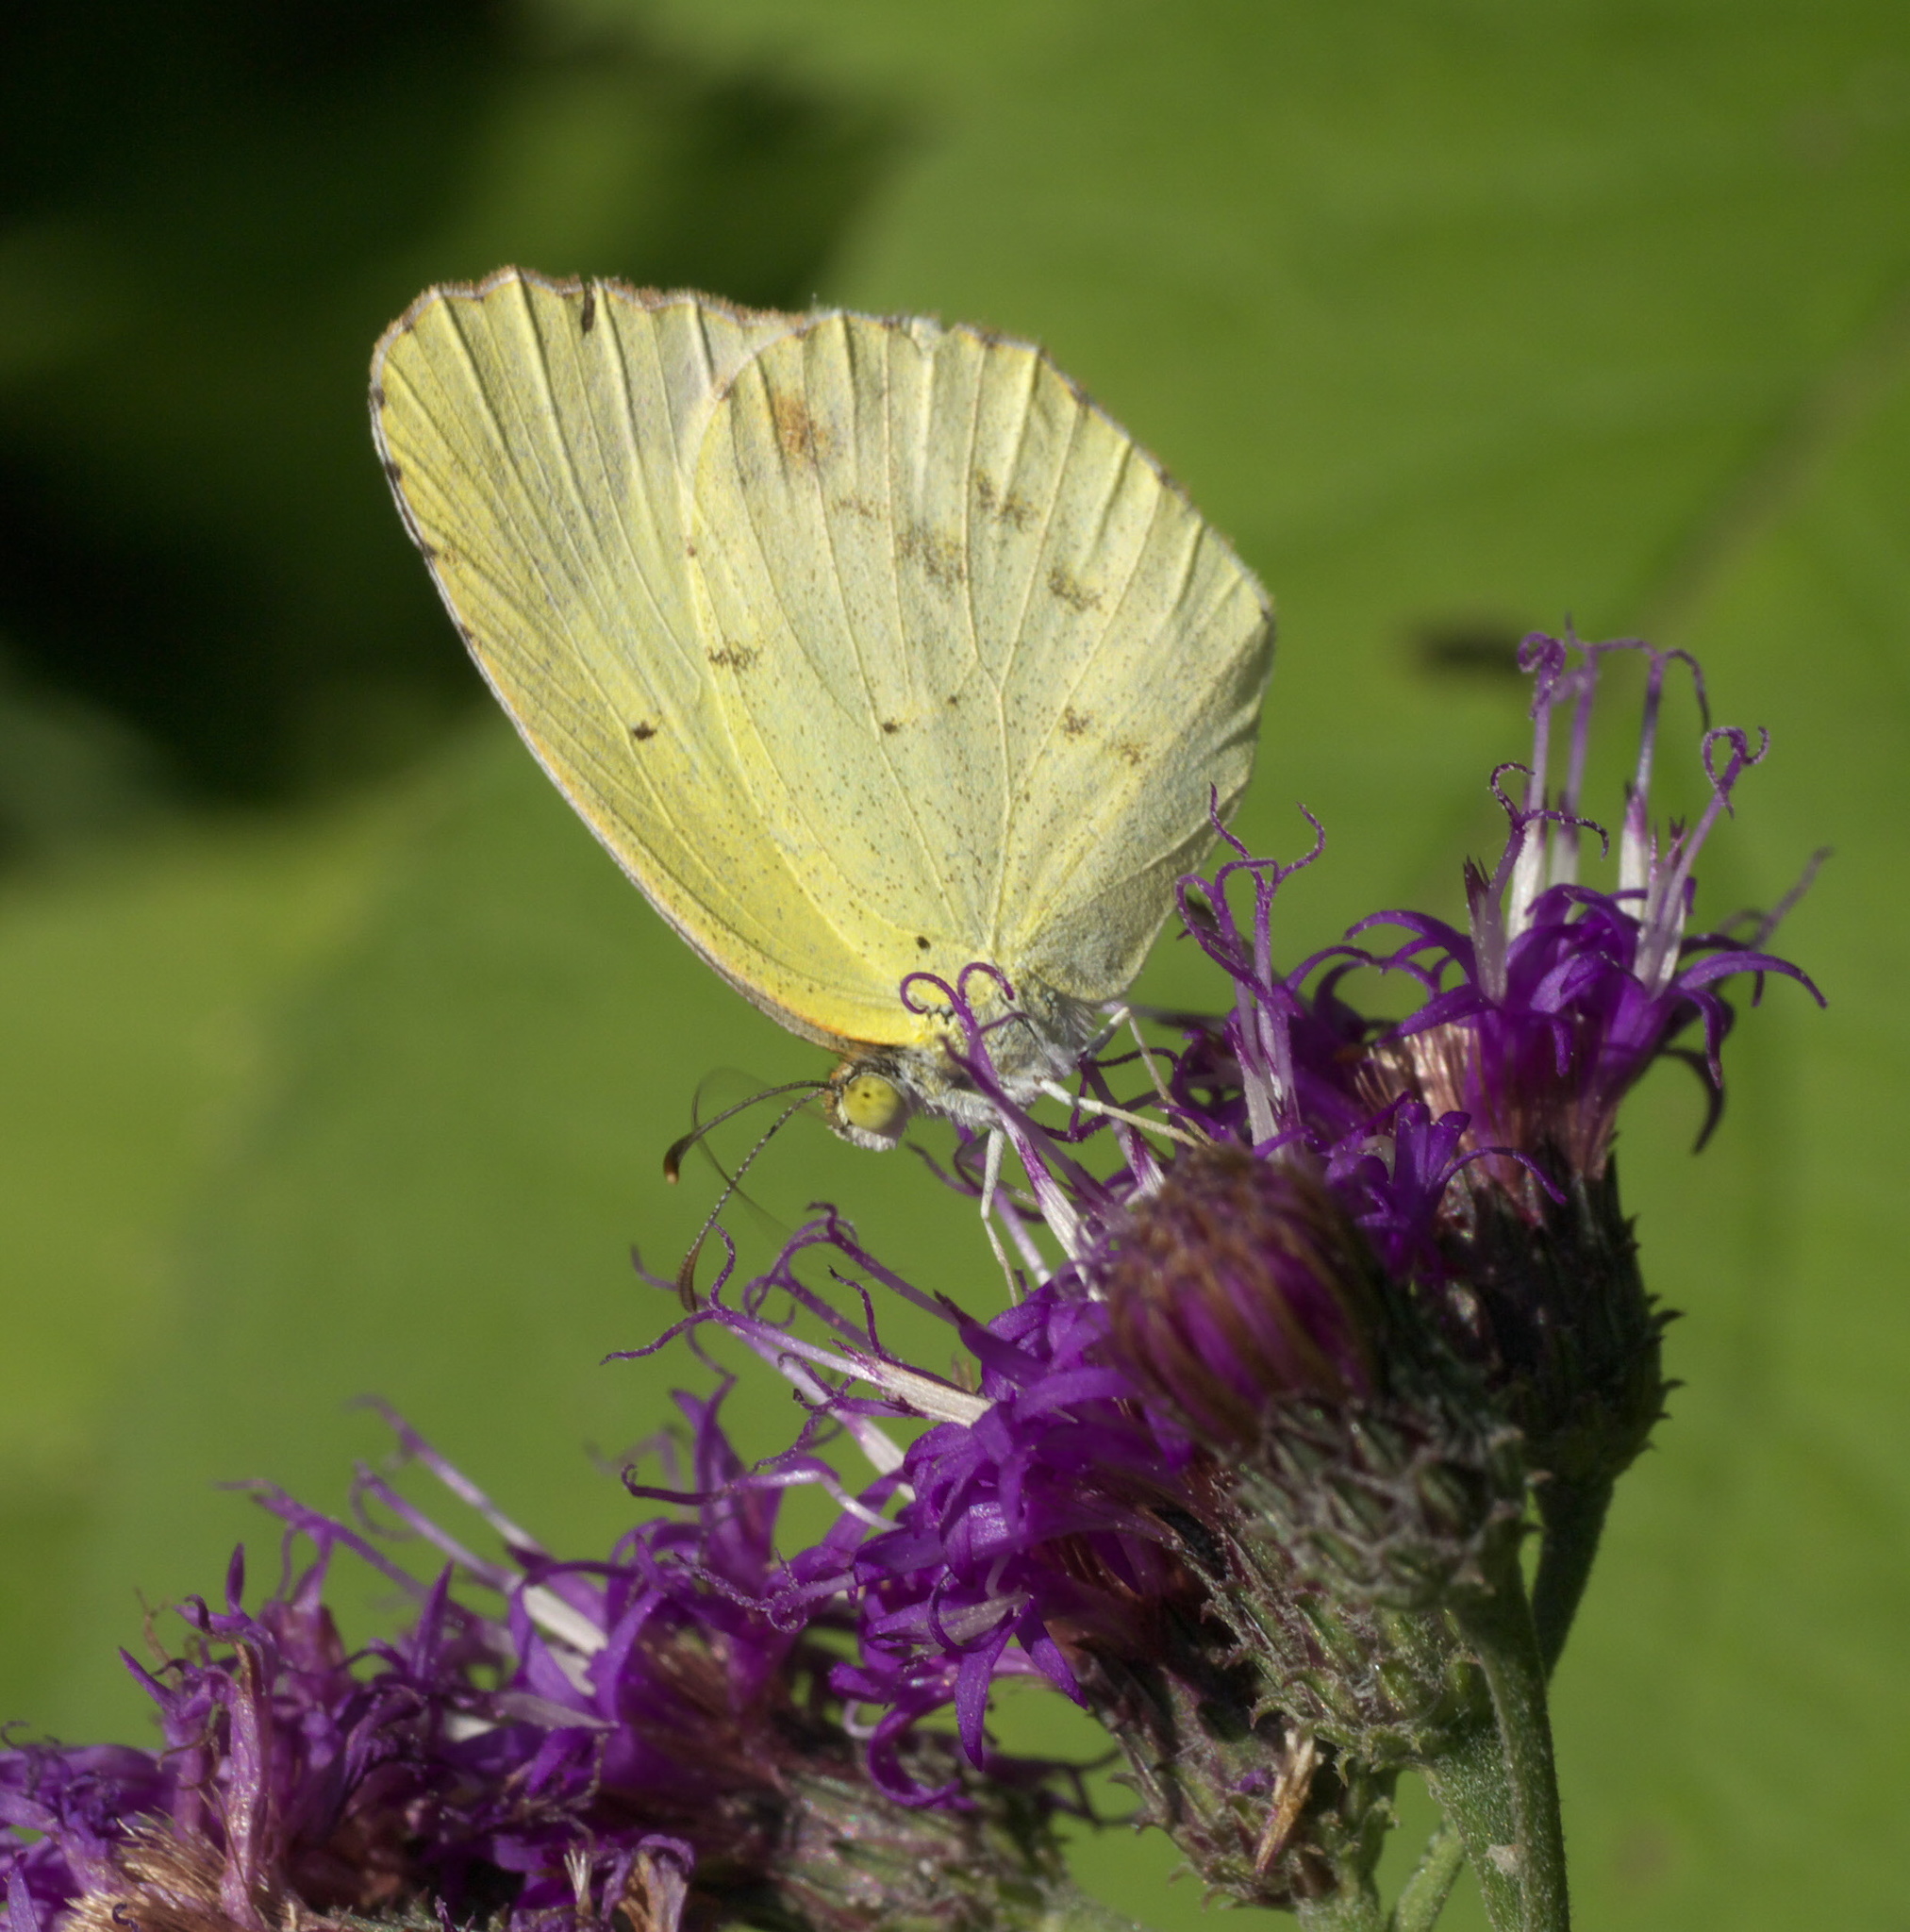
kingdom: Animalia
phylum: Arthropoda
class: Insecta
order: Lepidoptera
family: Pieridae
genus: Pyrisitia
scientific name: Pyrisitia lisa
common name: Little yellow
